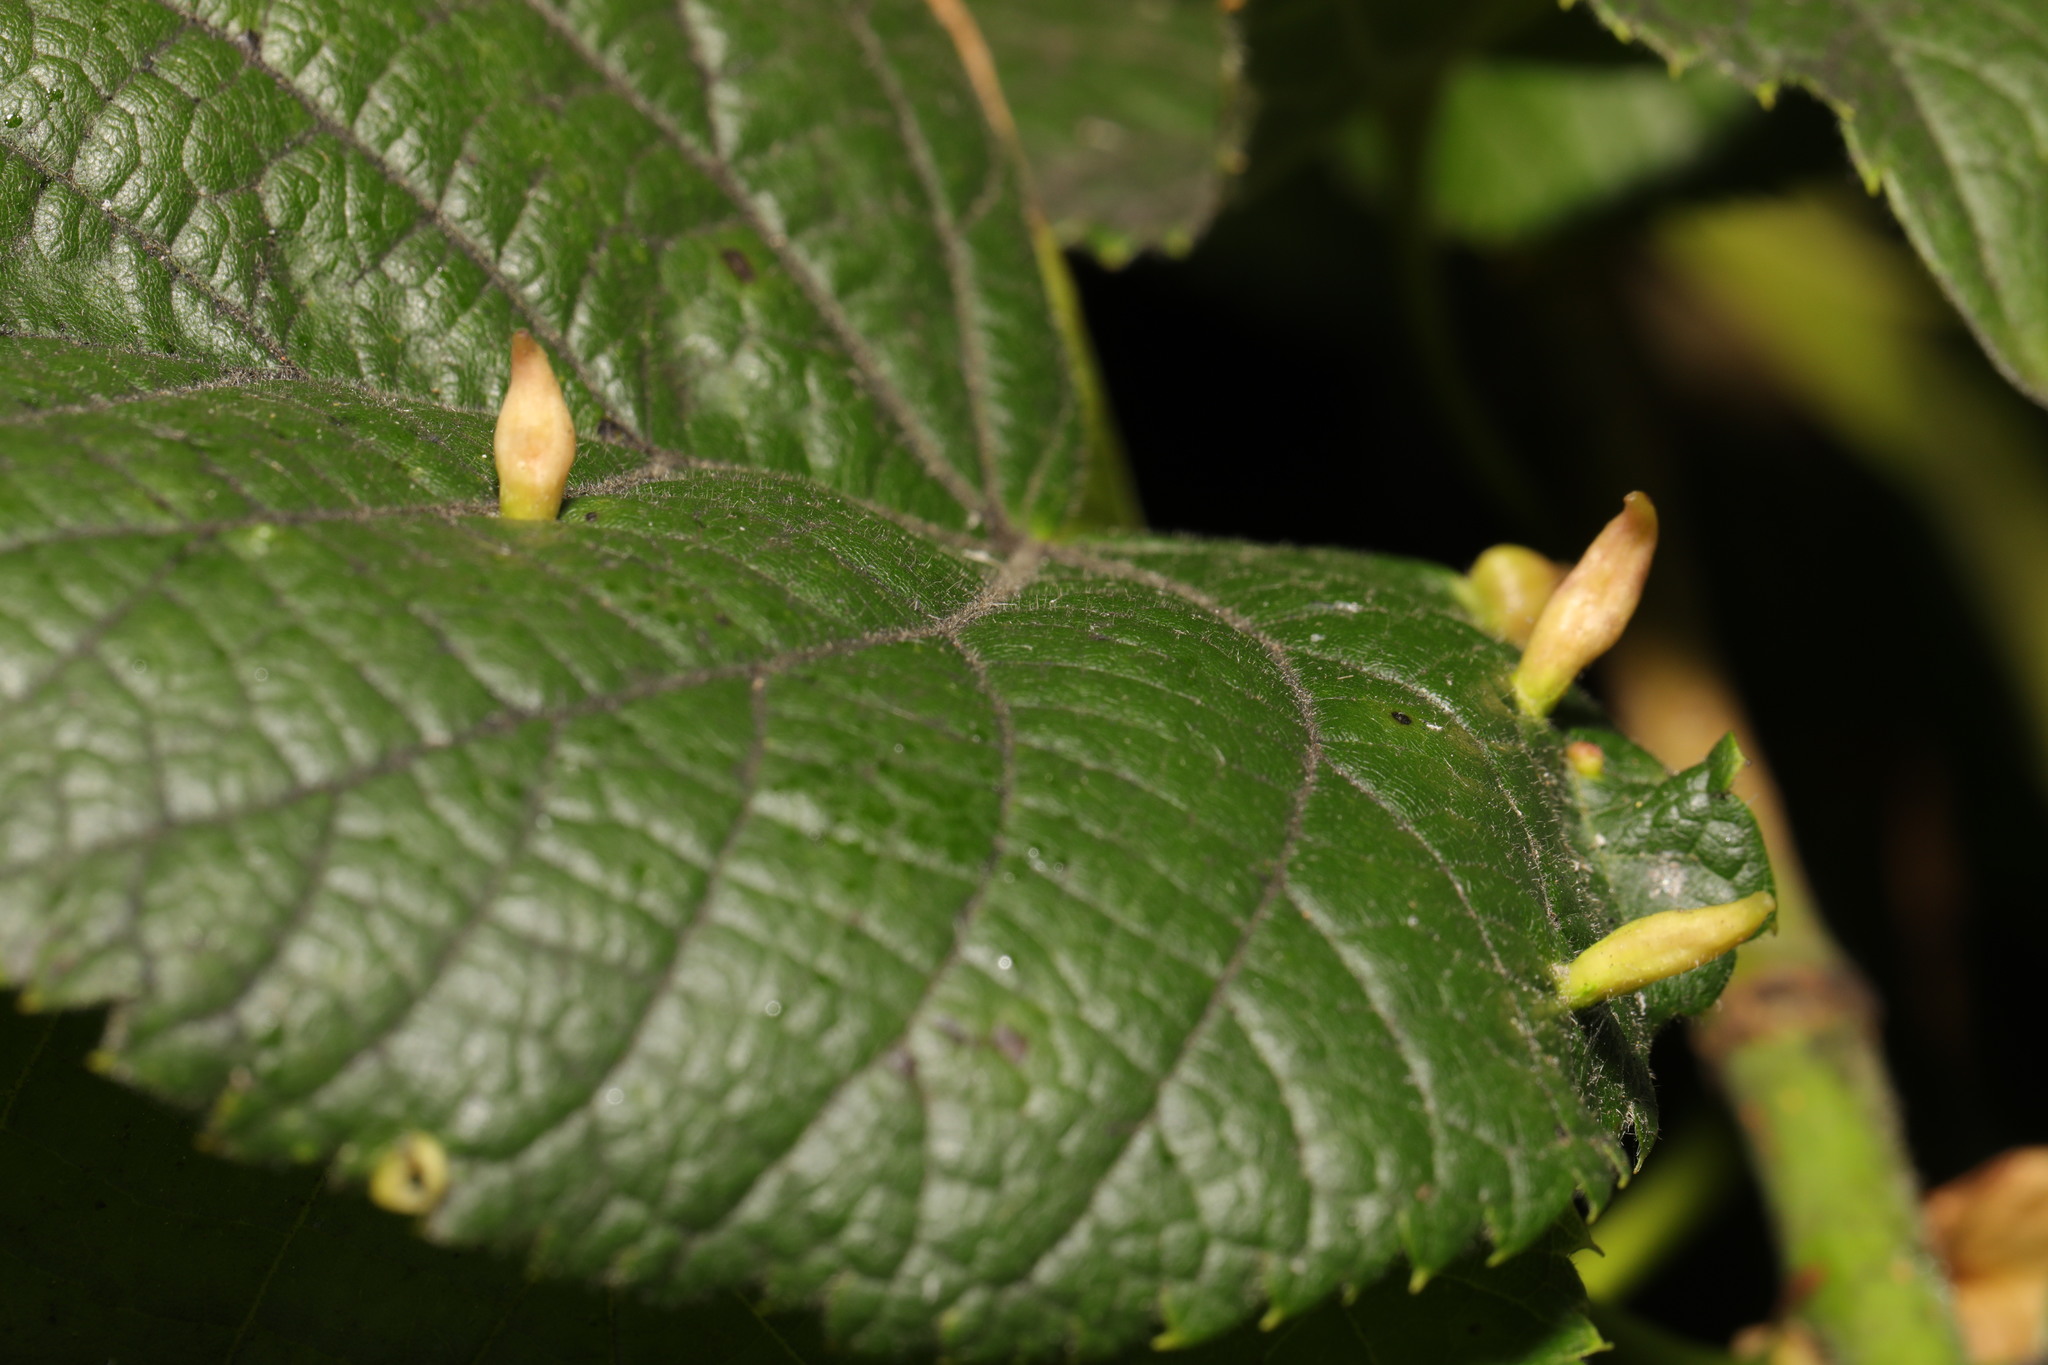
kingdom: Animalia
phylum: Arthropoda
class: Arachnida
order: Trombidiformes
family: Eriophyidae
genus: Eriophyes
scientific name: Eriophyes tiliae
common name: Red nail gall mite
